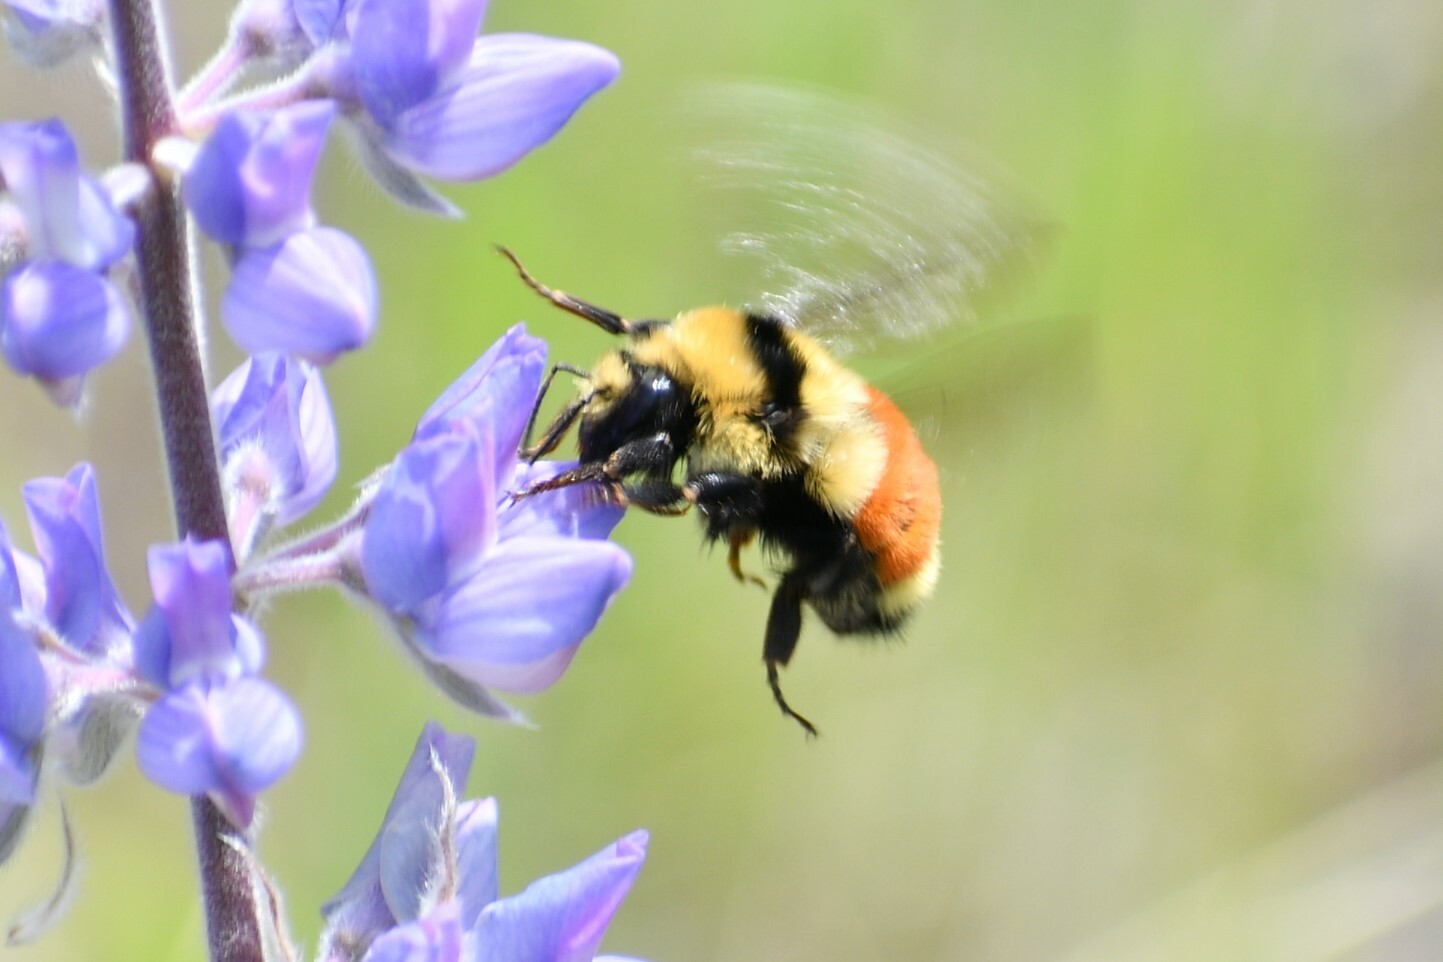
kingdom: Animalia
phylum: Arthropoda
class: Insecta
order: Hymenoptera
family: Apidae
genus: Bombus
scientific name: Bombus huntii
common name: Hunt bumble bee
